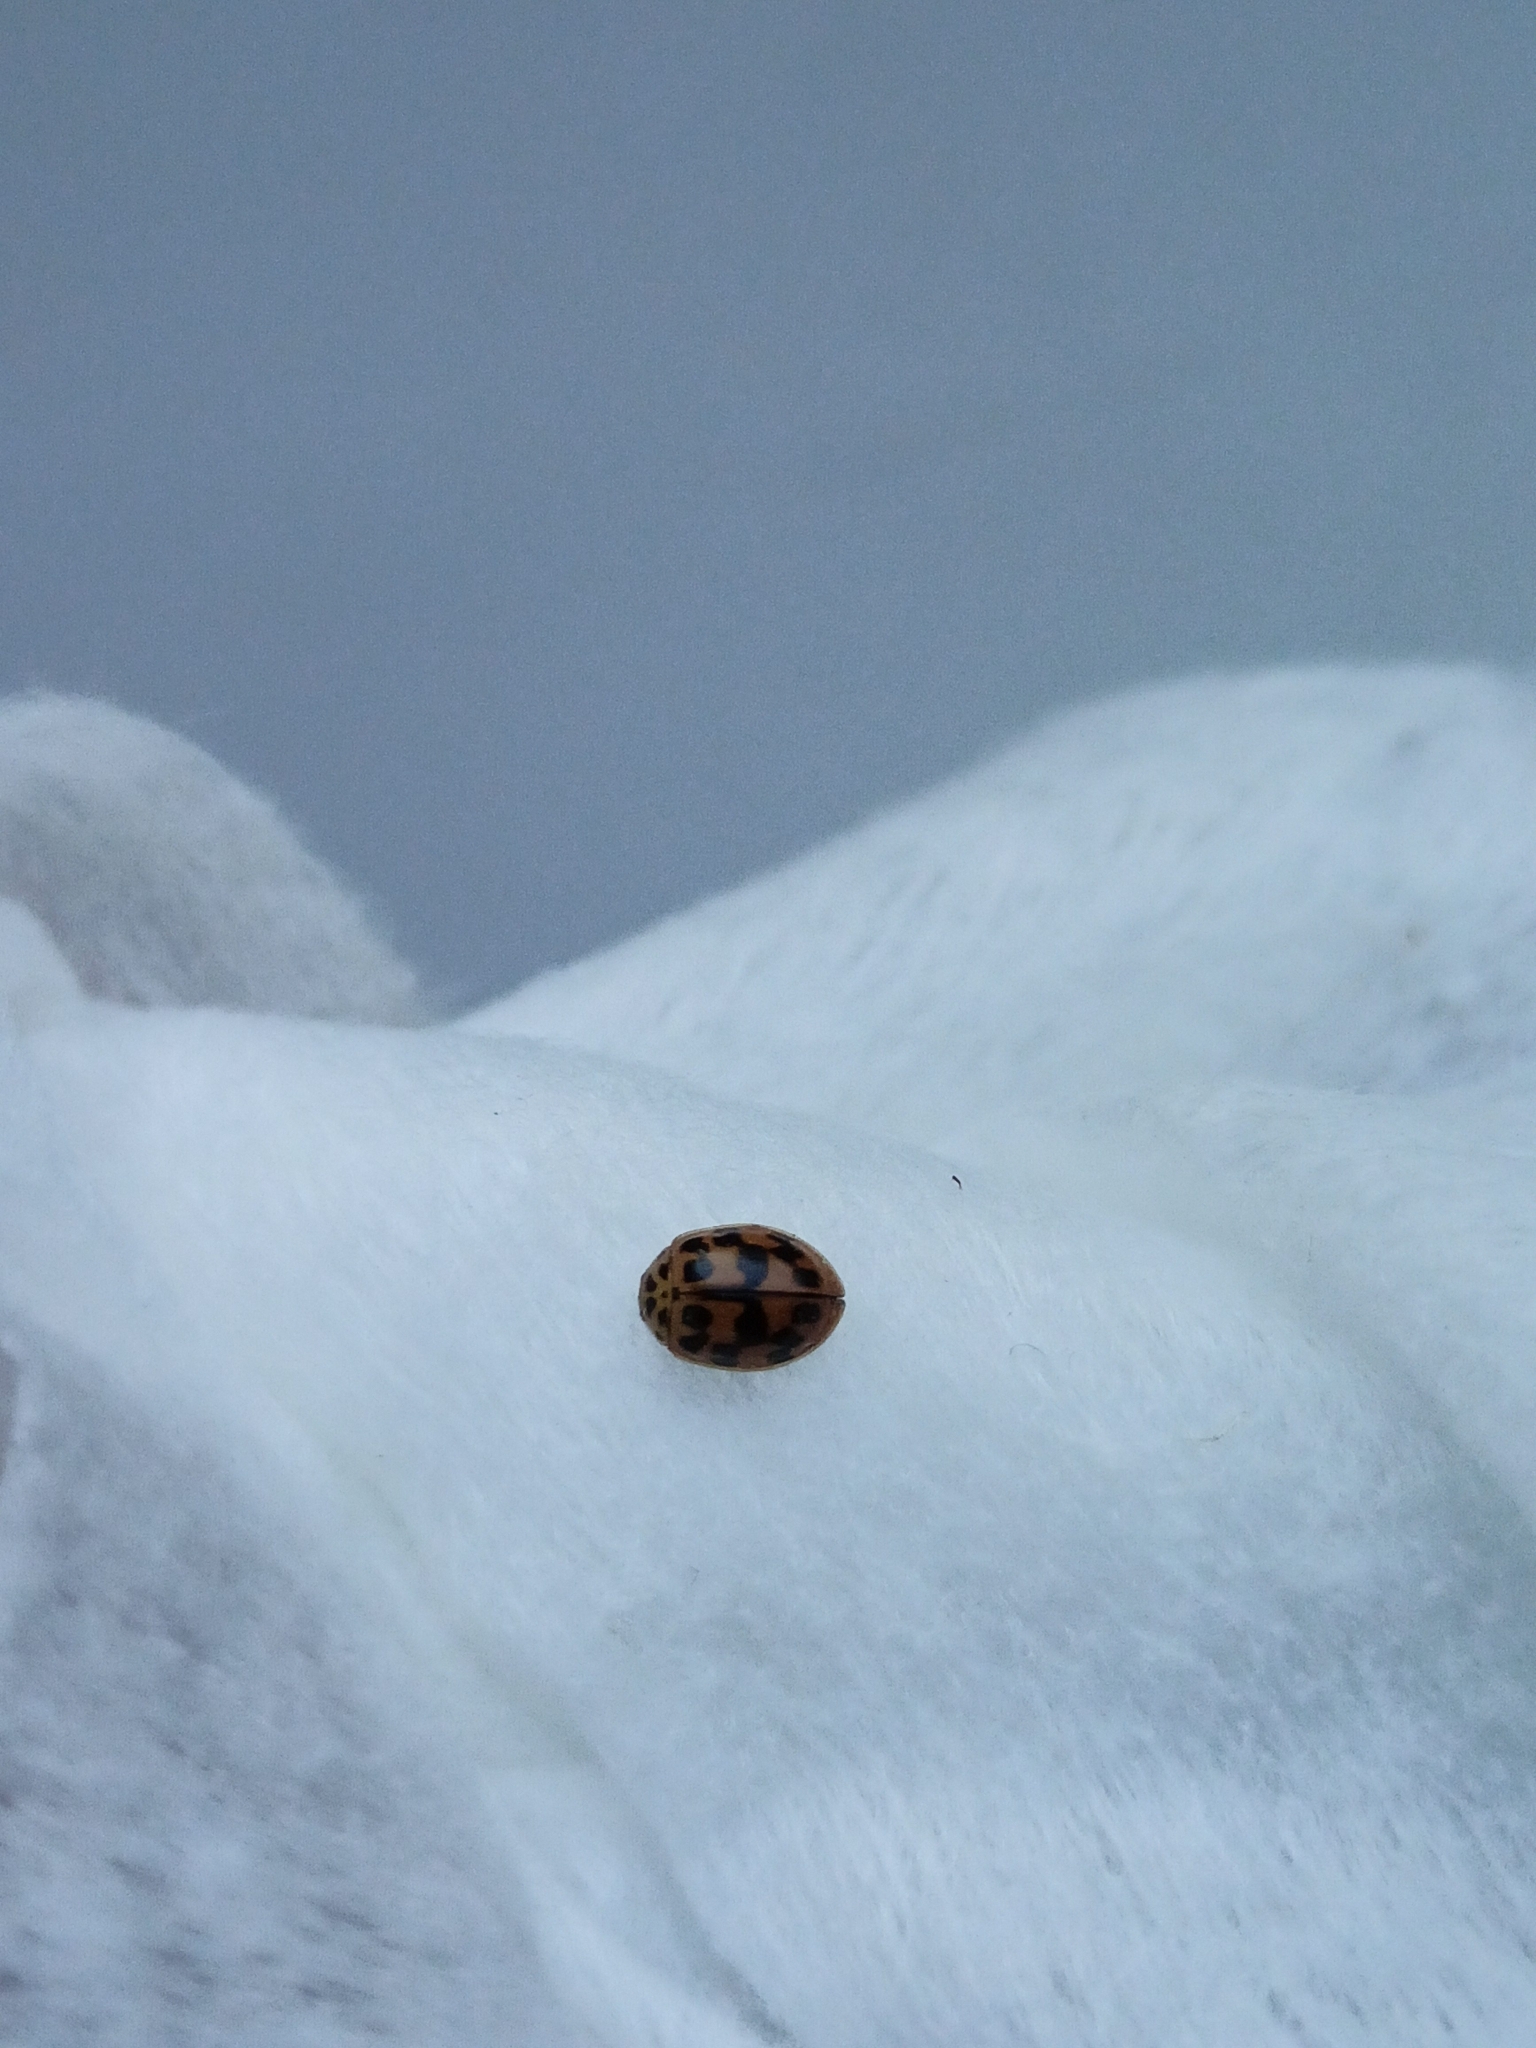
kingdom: Animalia
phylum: Arthropoda
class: Insecta
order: Coleoptera
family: Coccinellidae
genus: Oenopia
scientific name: Oenopia conglobata
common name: Ladybird beetle
